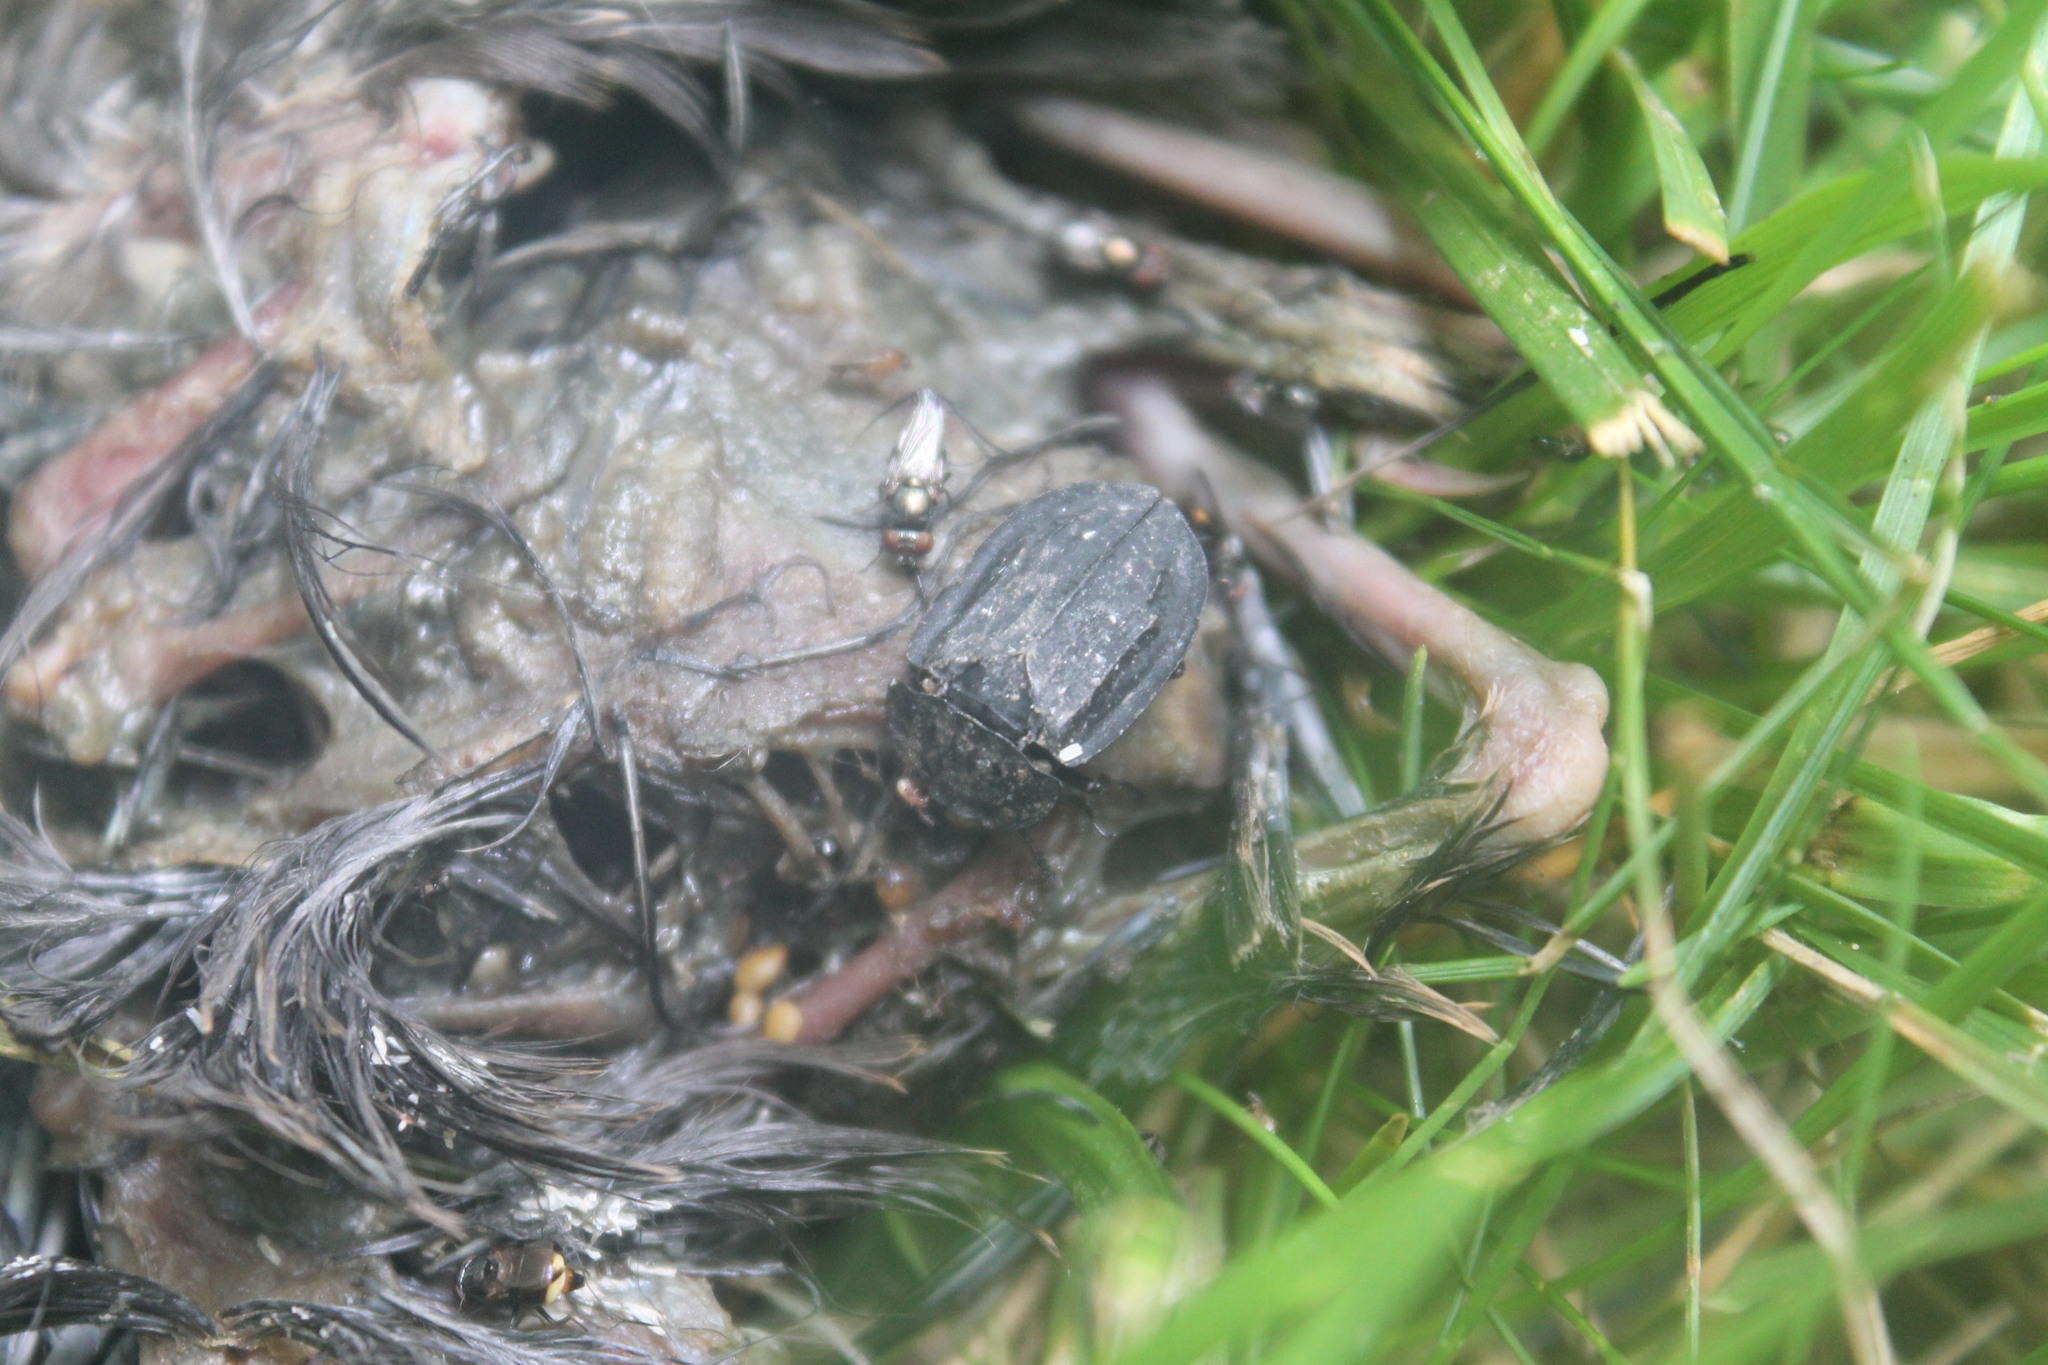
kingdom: Animalia
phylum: Arthropoda
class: Insecta
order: Coleoptera
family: Staphylinidae
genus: Oiceoptoma
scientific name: Oiceoptoma inaequale
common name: Ridged carrion beetle
